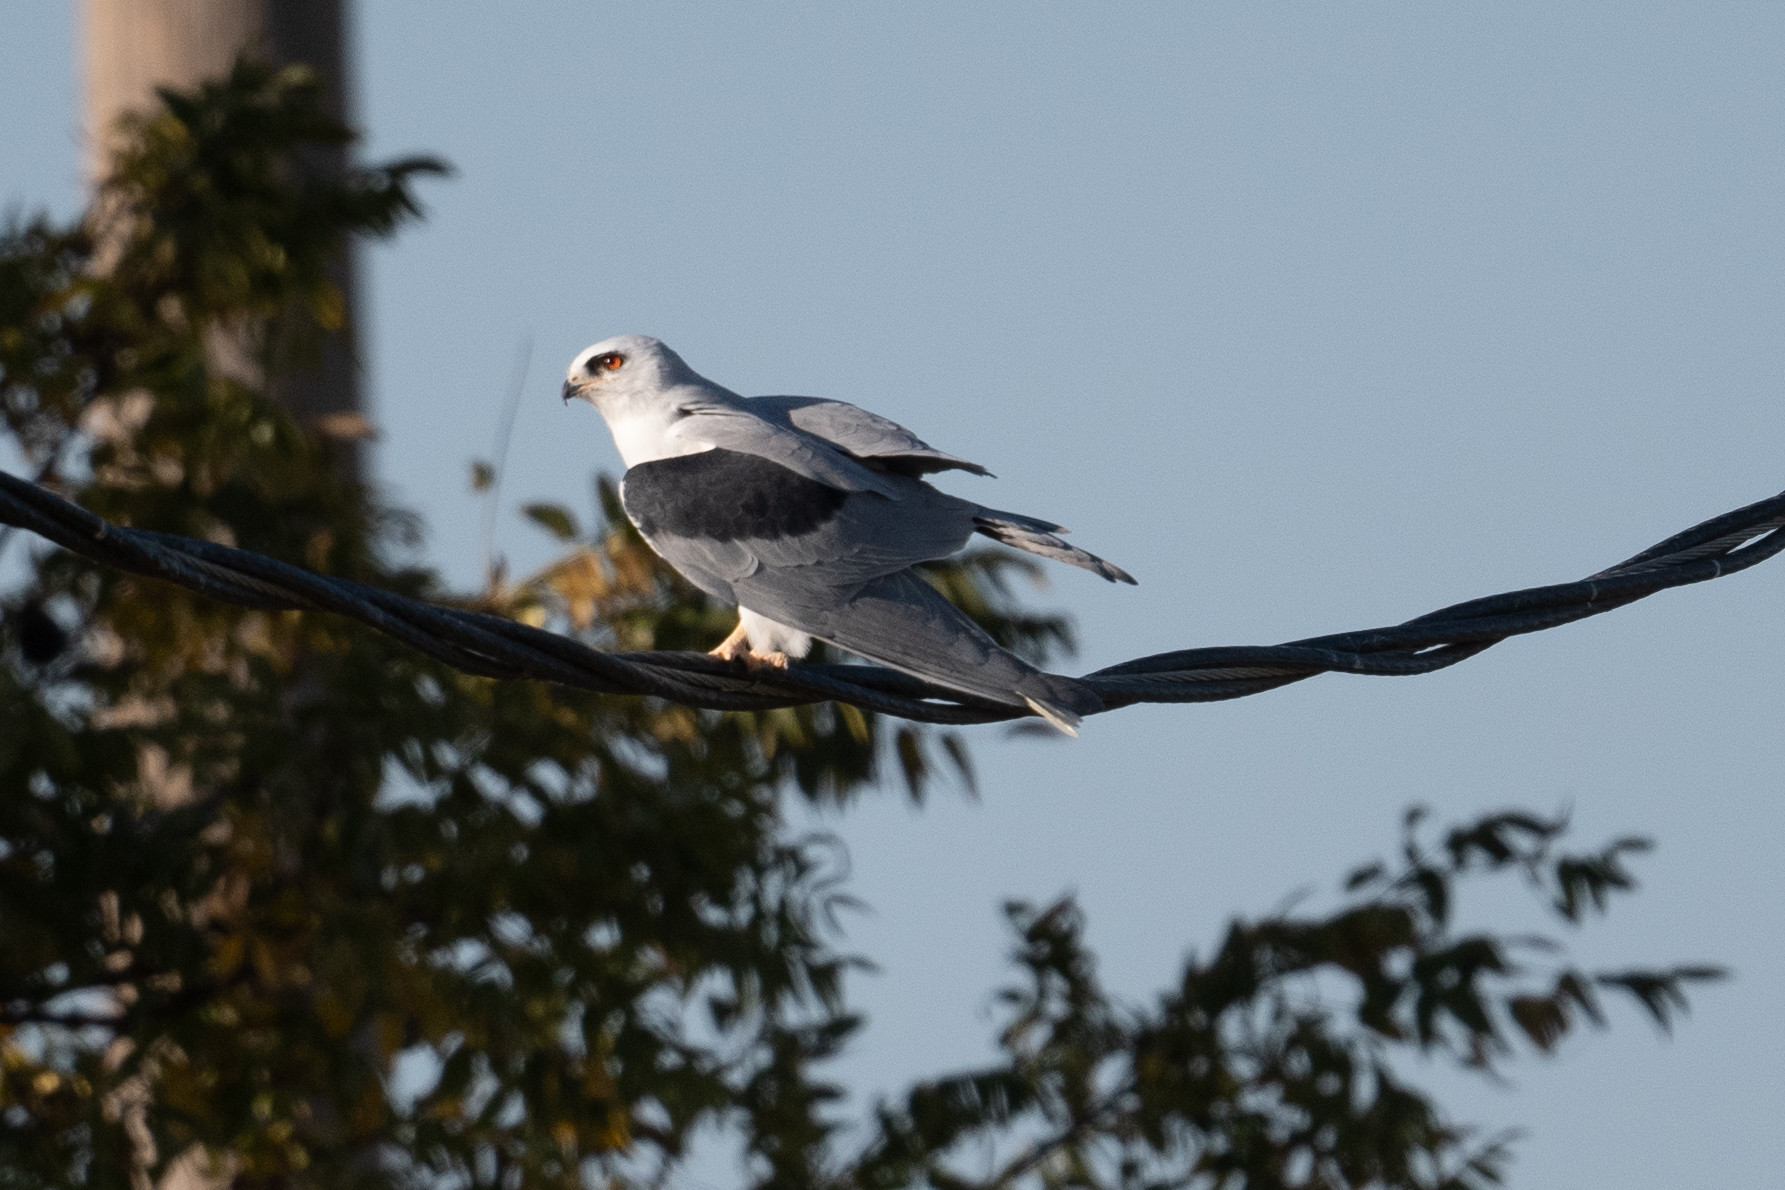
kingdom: Animalia
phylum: Chordata
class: Aves
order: Accipitriformes
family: Accipitridae
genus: Elanus
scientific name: Elanus leucurus
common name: White-tailed kite
